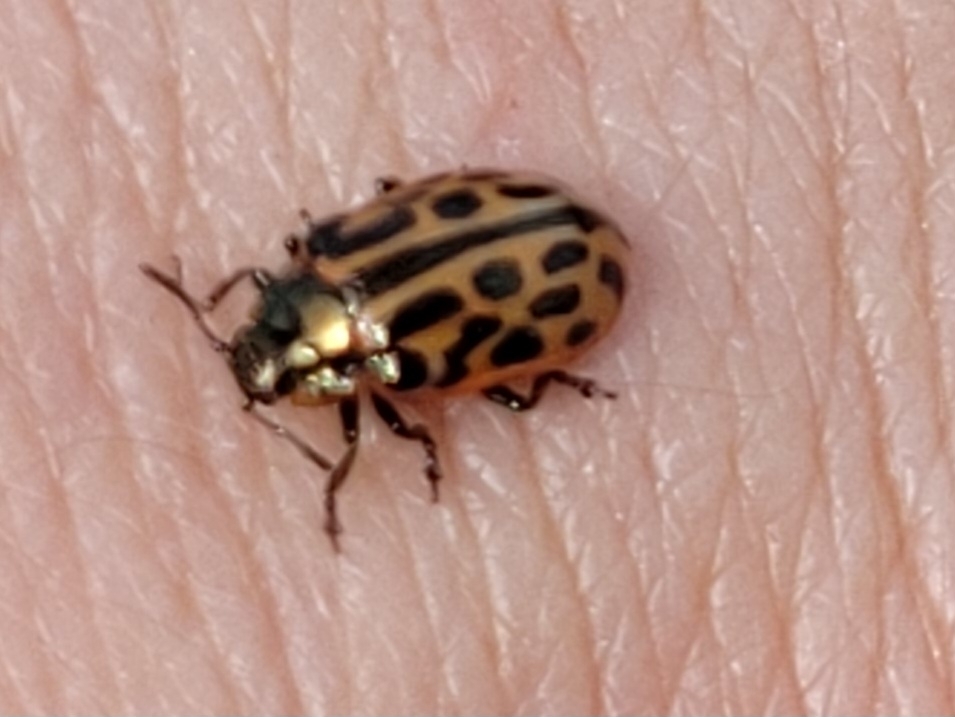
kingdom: Animalia
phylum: Arthropoda
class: Insecta
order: Coleoptera
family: Chrysomelidae
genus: Chrysomela
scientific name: Chrysomela vigintipunctata
